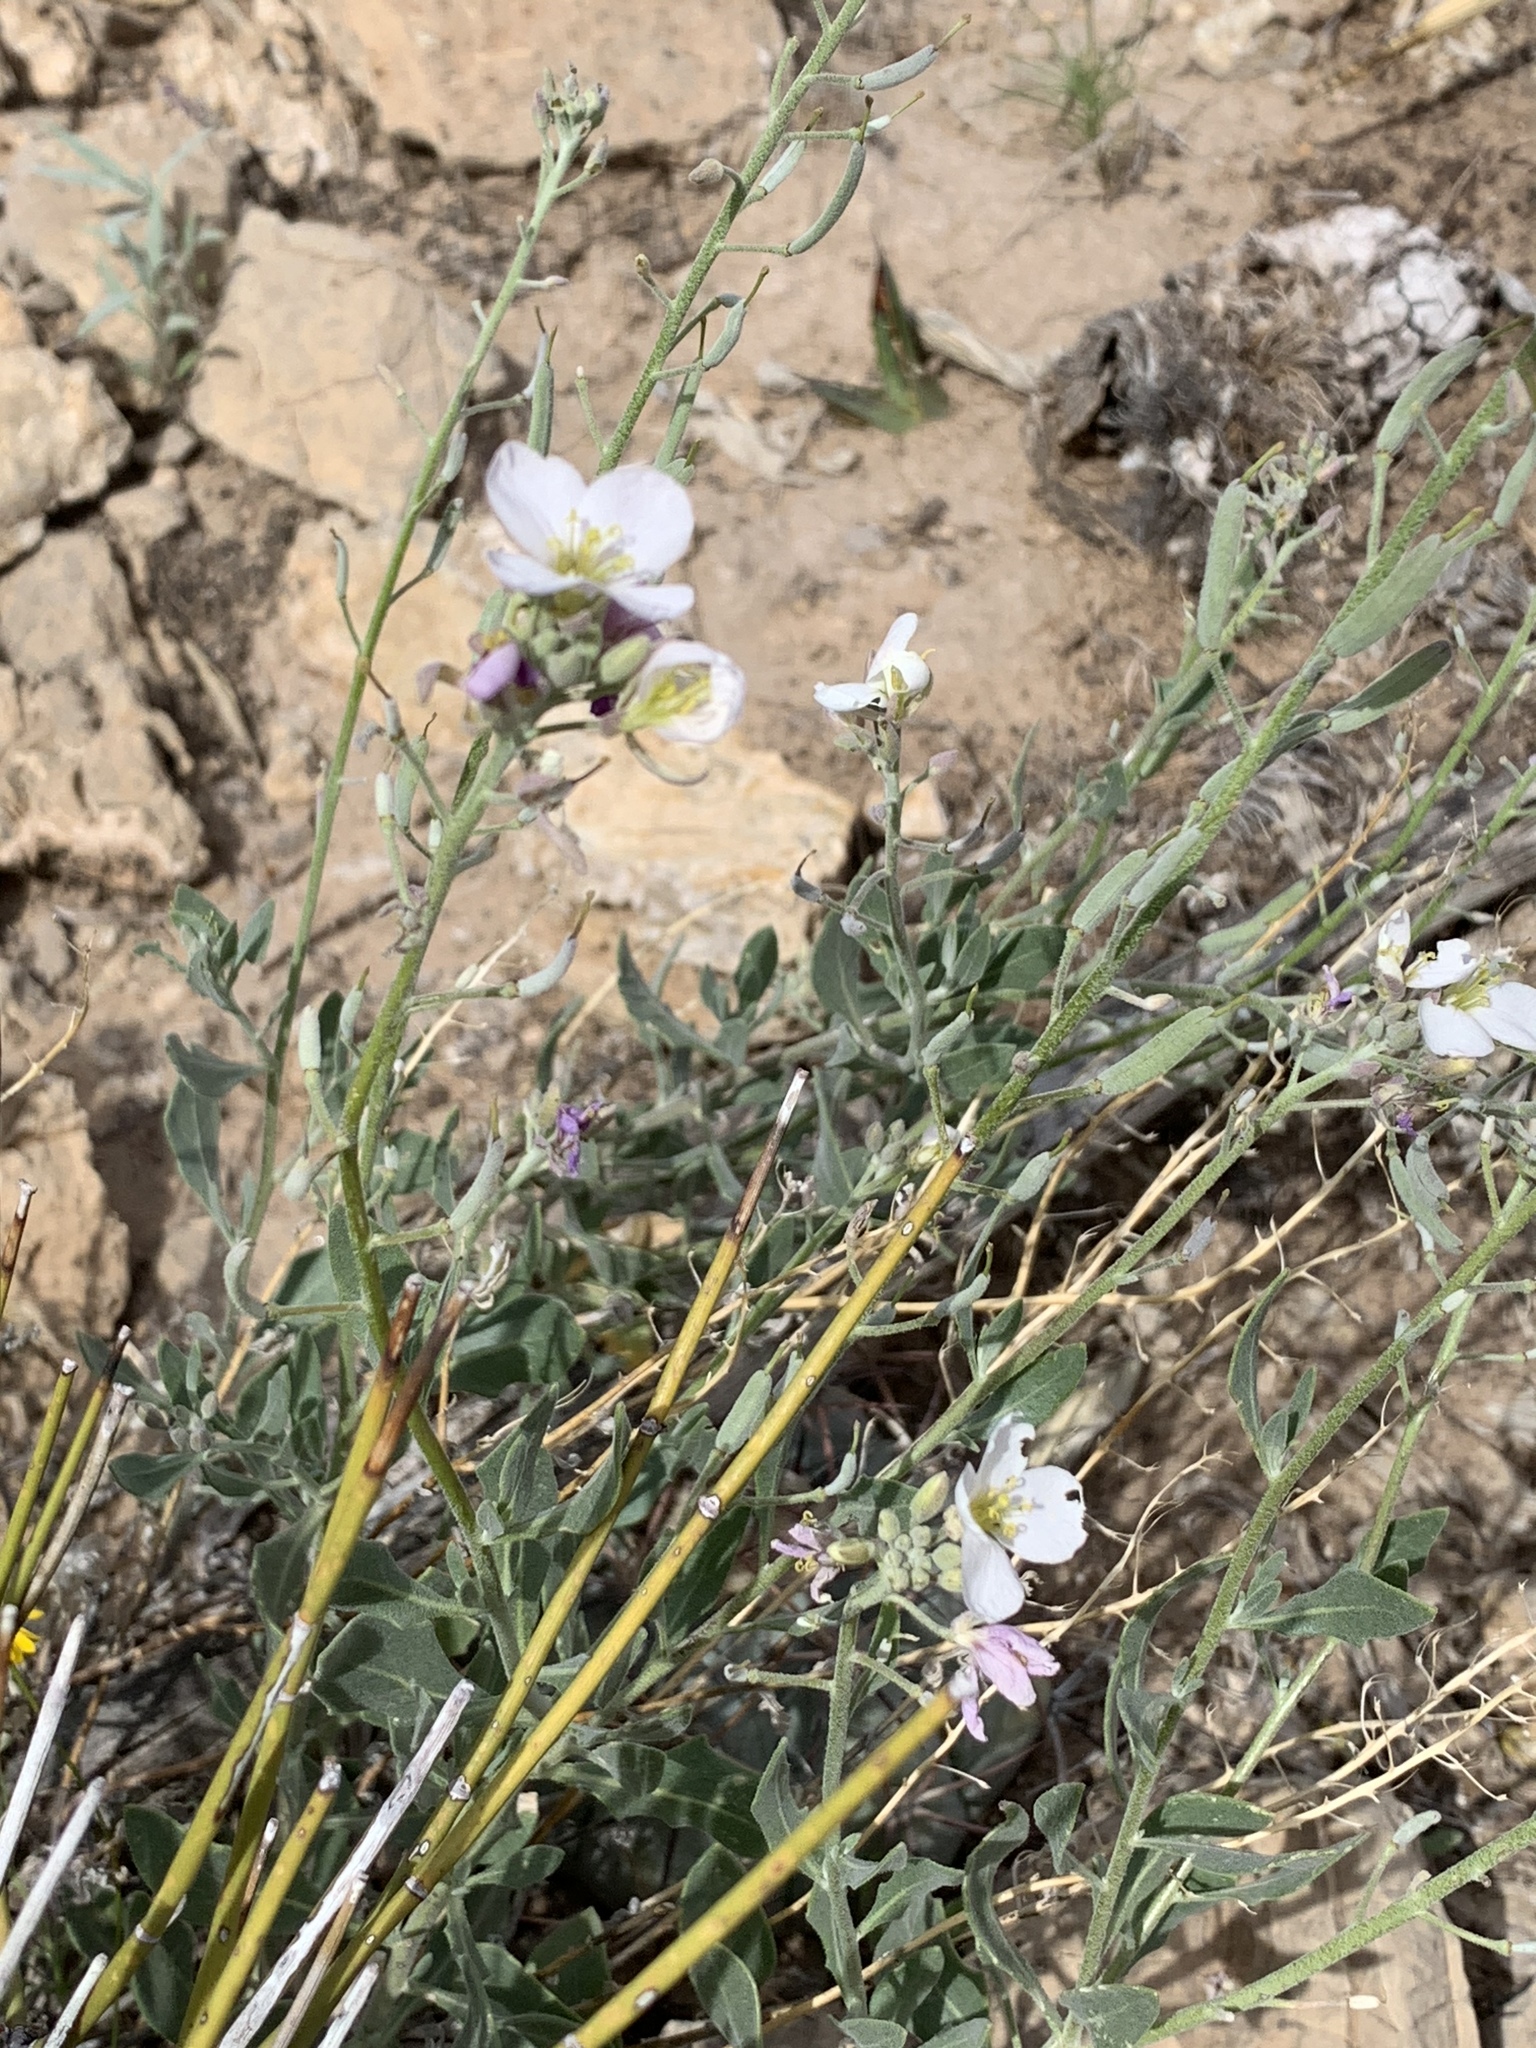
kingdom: Plantae
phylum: Tracheophyta
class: Magnoliopsida
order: Brassicales
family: Brassicaceae
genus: Nerisyrenia
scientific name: Nerisyrenia camporum
